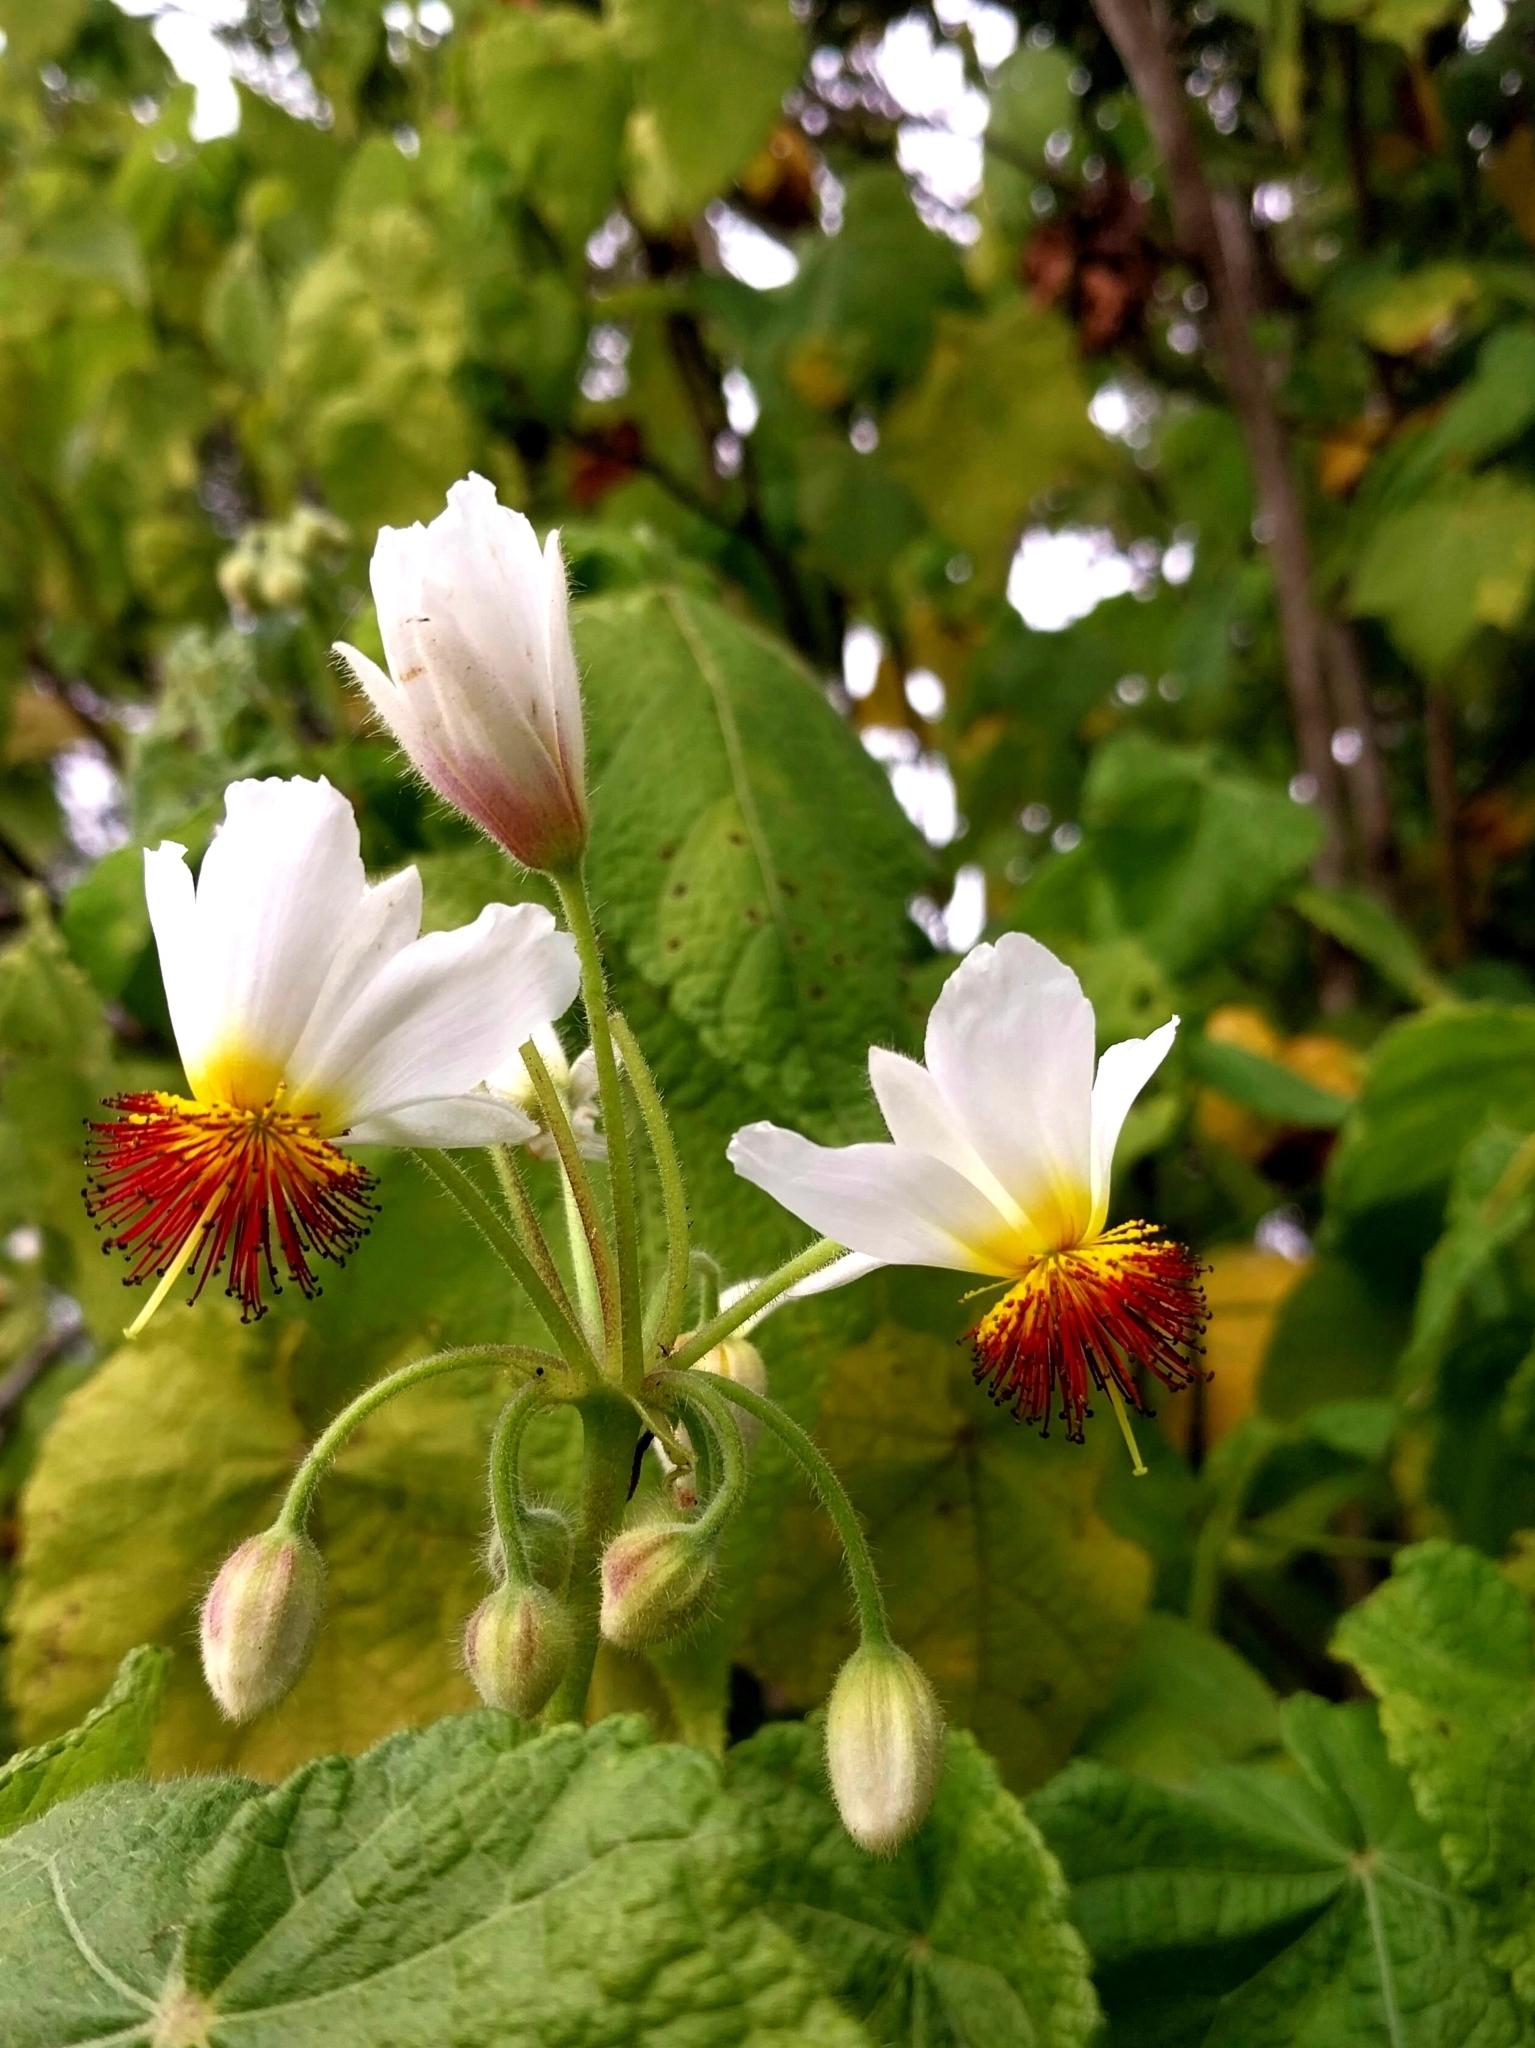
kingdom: Plantae
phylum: Tracheophyta
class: Magnoliopsida
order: Malvales
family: Malvaceae
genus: Sparrmannia
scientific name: Sparrmannia africana
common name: African-hemp
